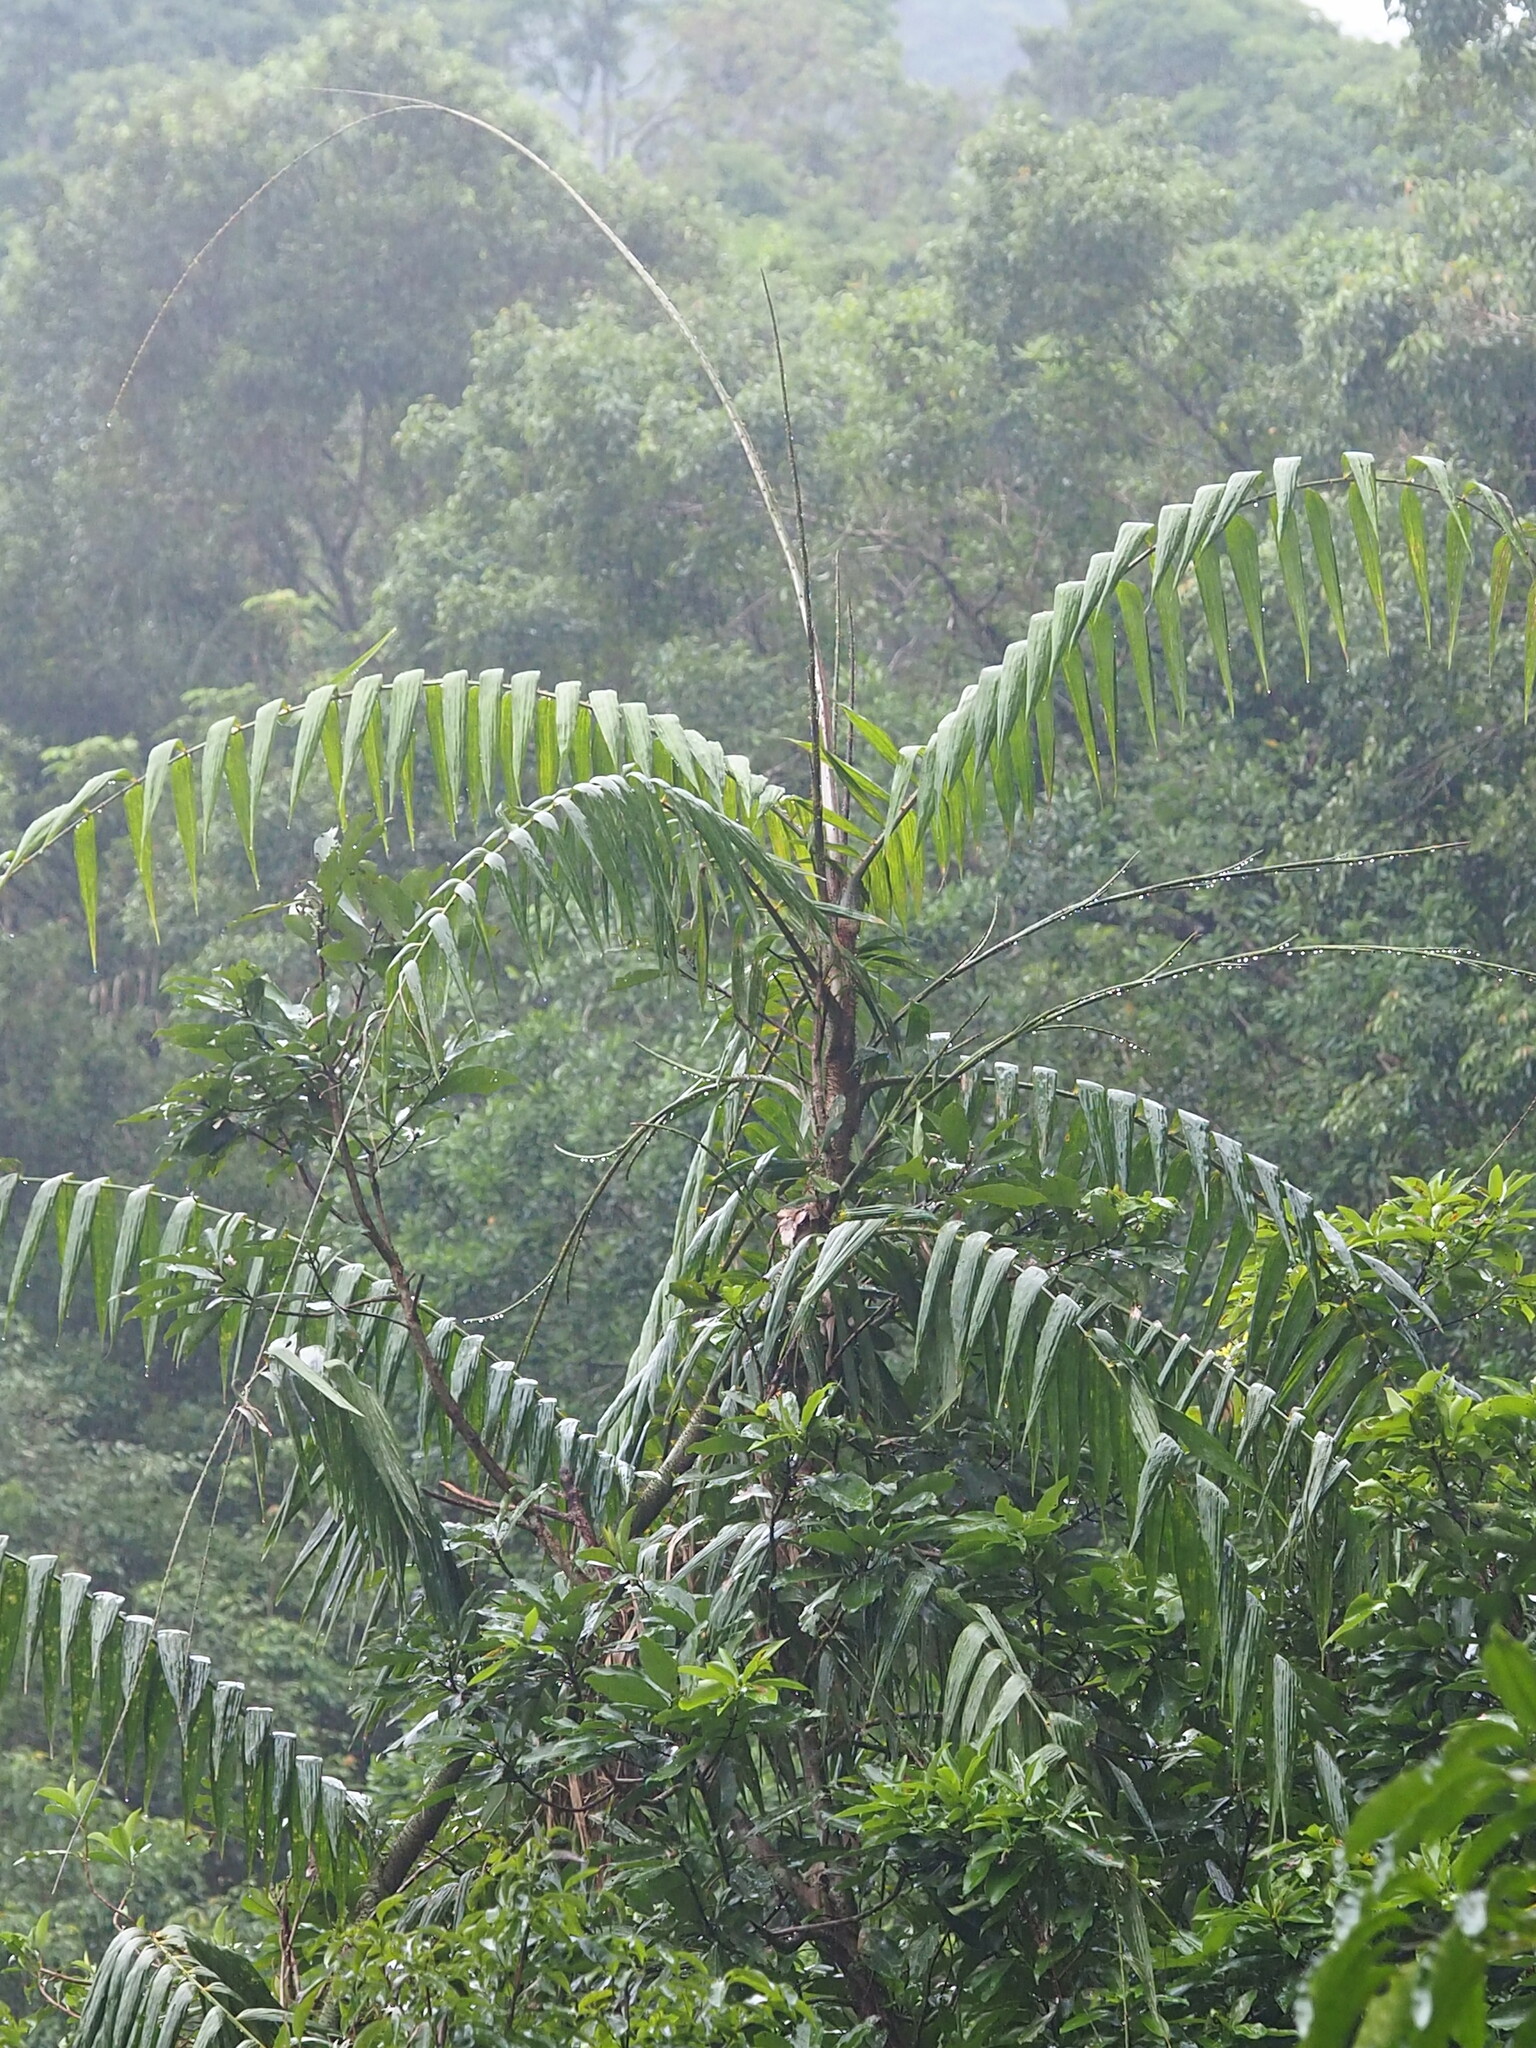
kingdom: Plantae
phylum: Tracheophyta
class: Liliopsida
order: Arecales
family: Arecaceae
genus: Calamus
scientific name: Calamus formosanus
